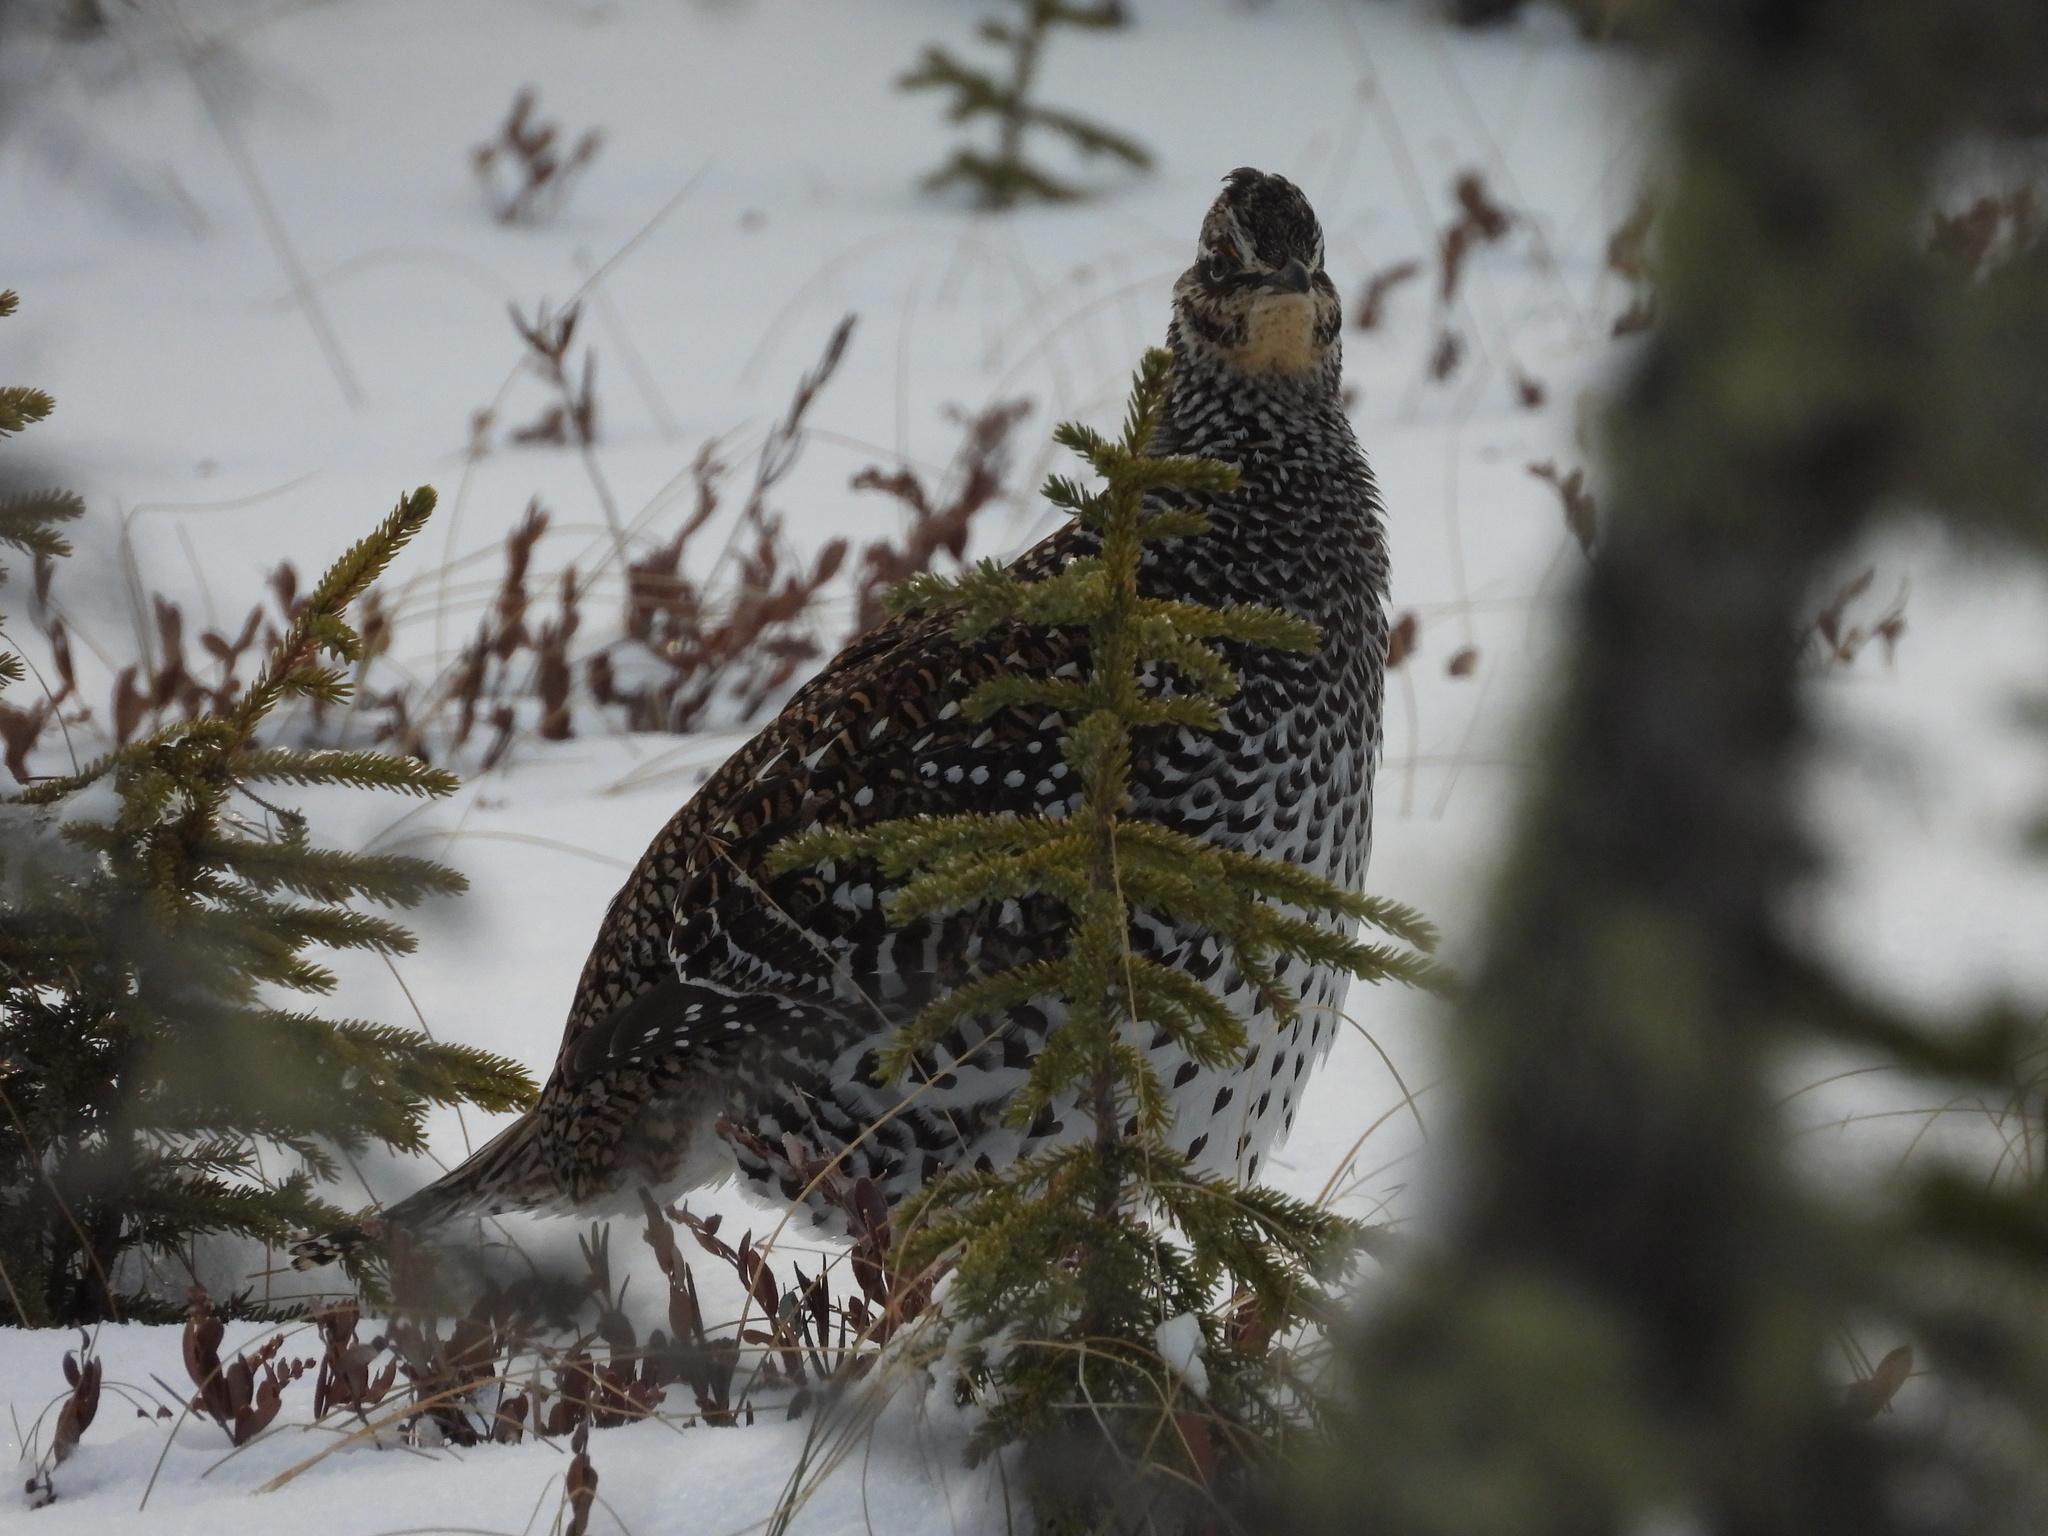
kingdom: Animalia
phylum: Chordata
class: Aves
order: Galliformes
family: Phasianidae
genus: Tympanuchus
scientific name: Tympanuchus phasianellus
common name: Sharp-tailed grouse
